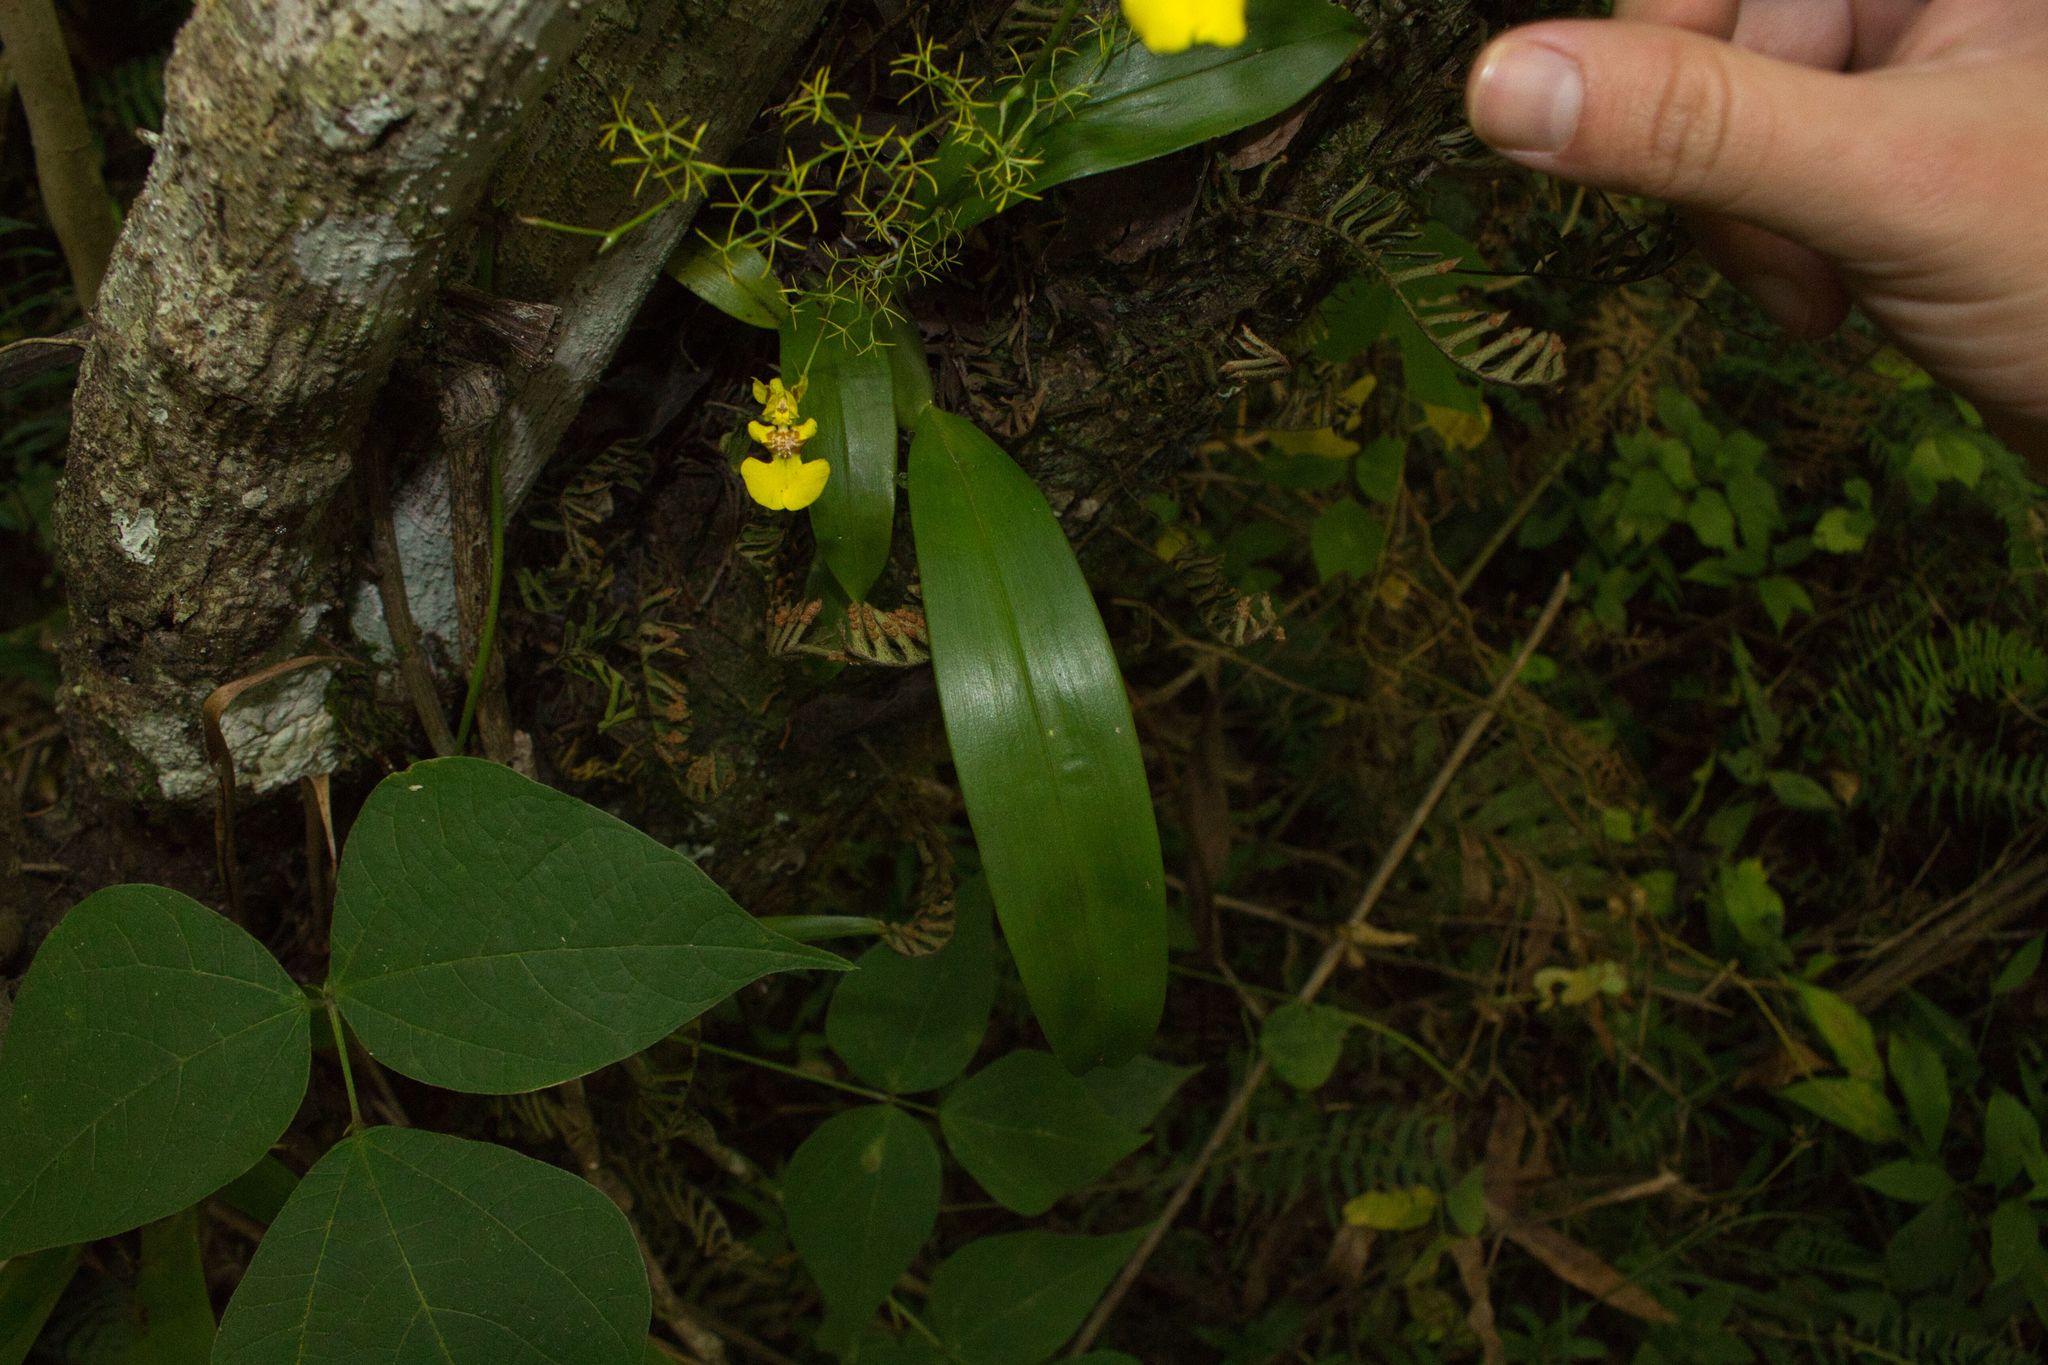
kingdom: Plantae
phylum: Tracheophyta
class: Liliopsida
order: Asparagales
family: Orchidaceae
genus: Oncidium
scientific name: Oncidium bryolophotum
